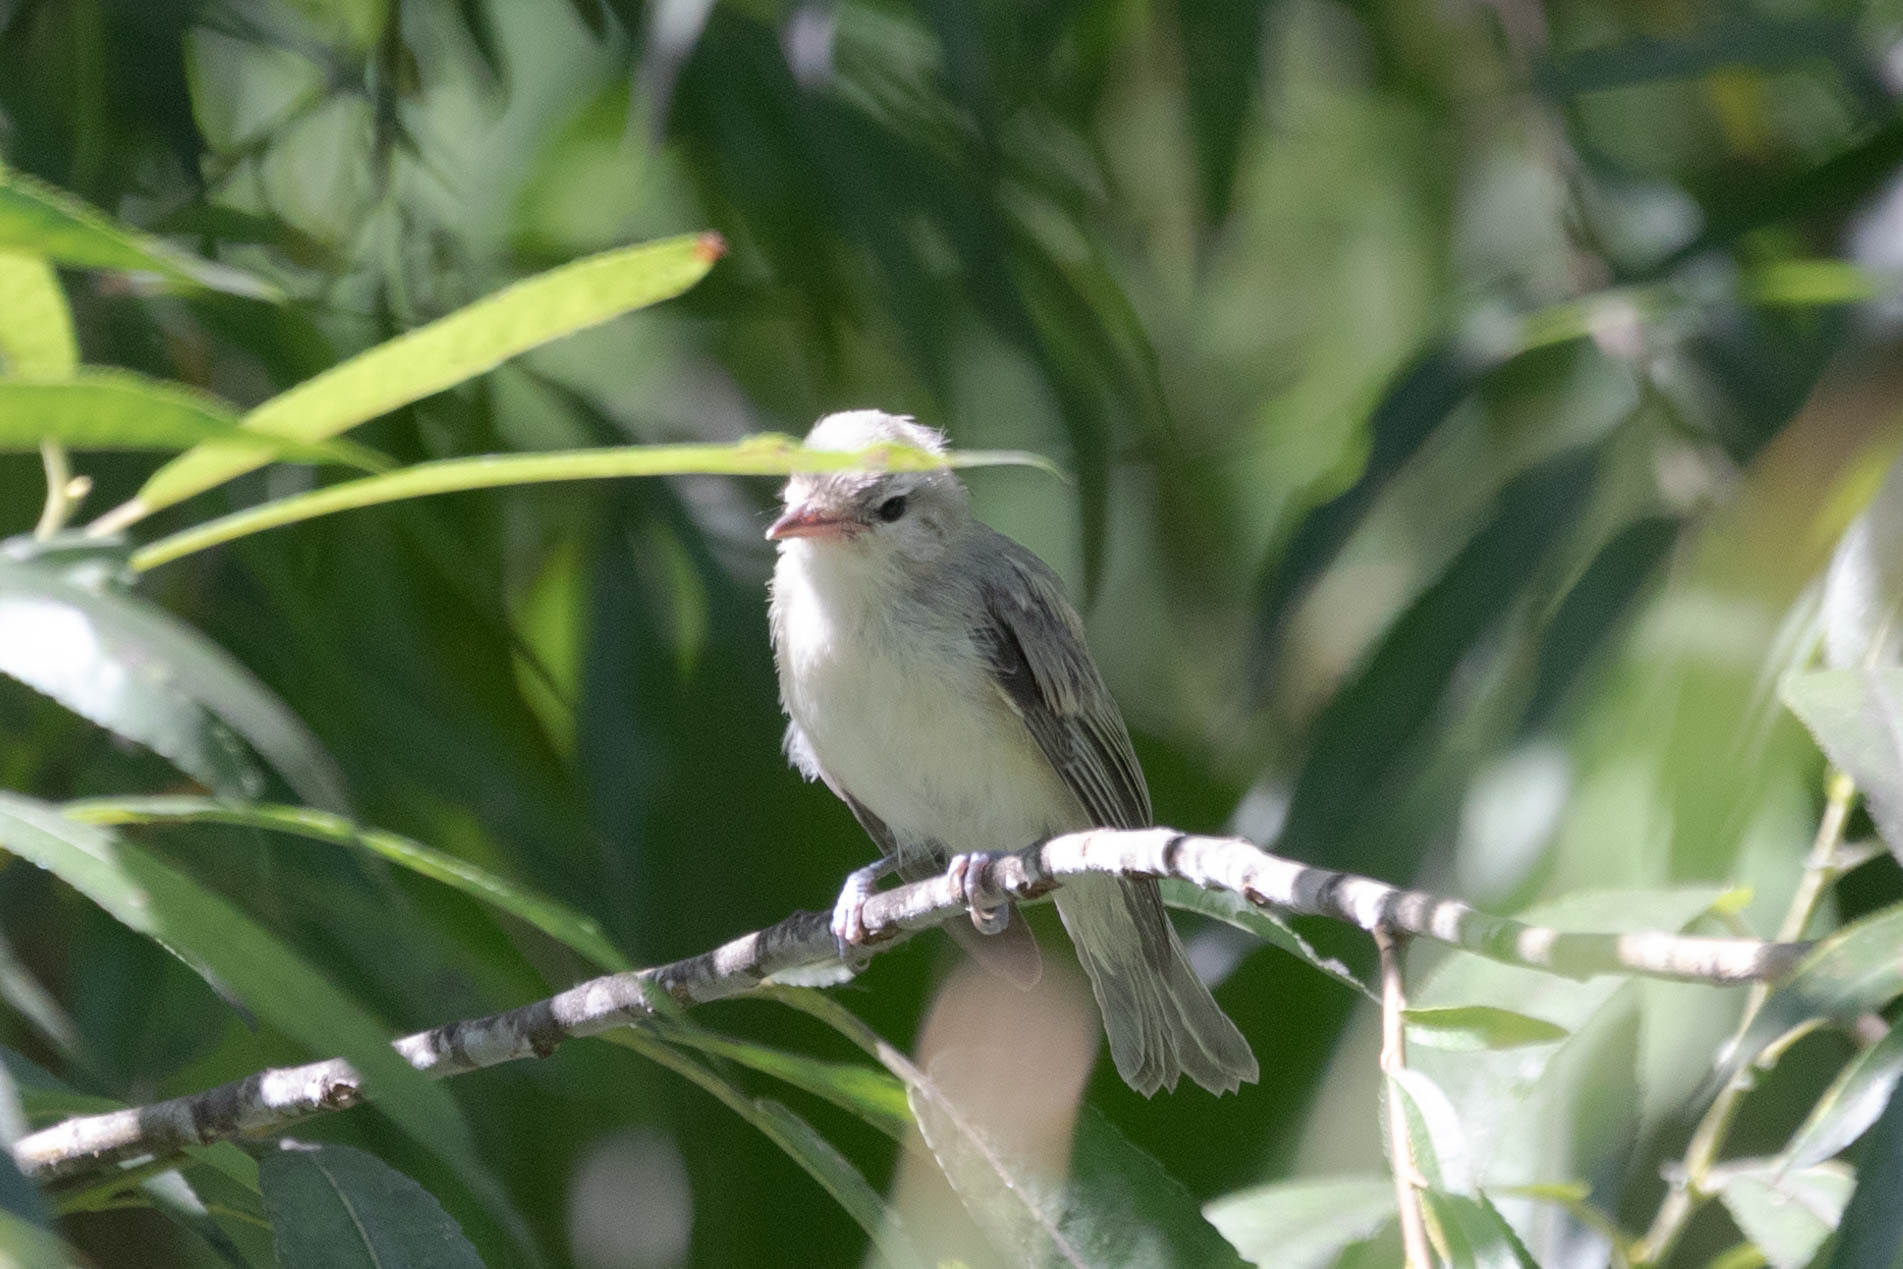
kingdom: Animalia
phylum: Chordata
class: Aves
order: Passeriformes
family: Vireonidae
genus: Vireo
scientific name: Vireo gilvus
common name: Warbling vireo
